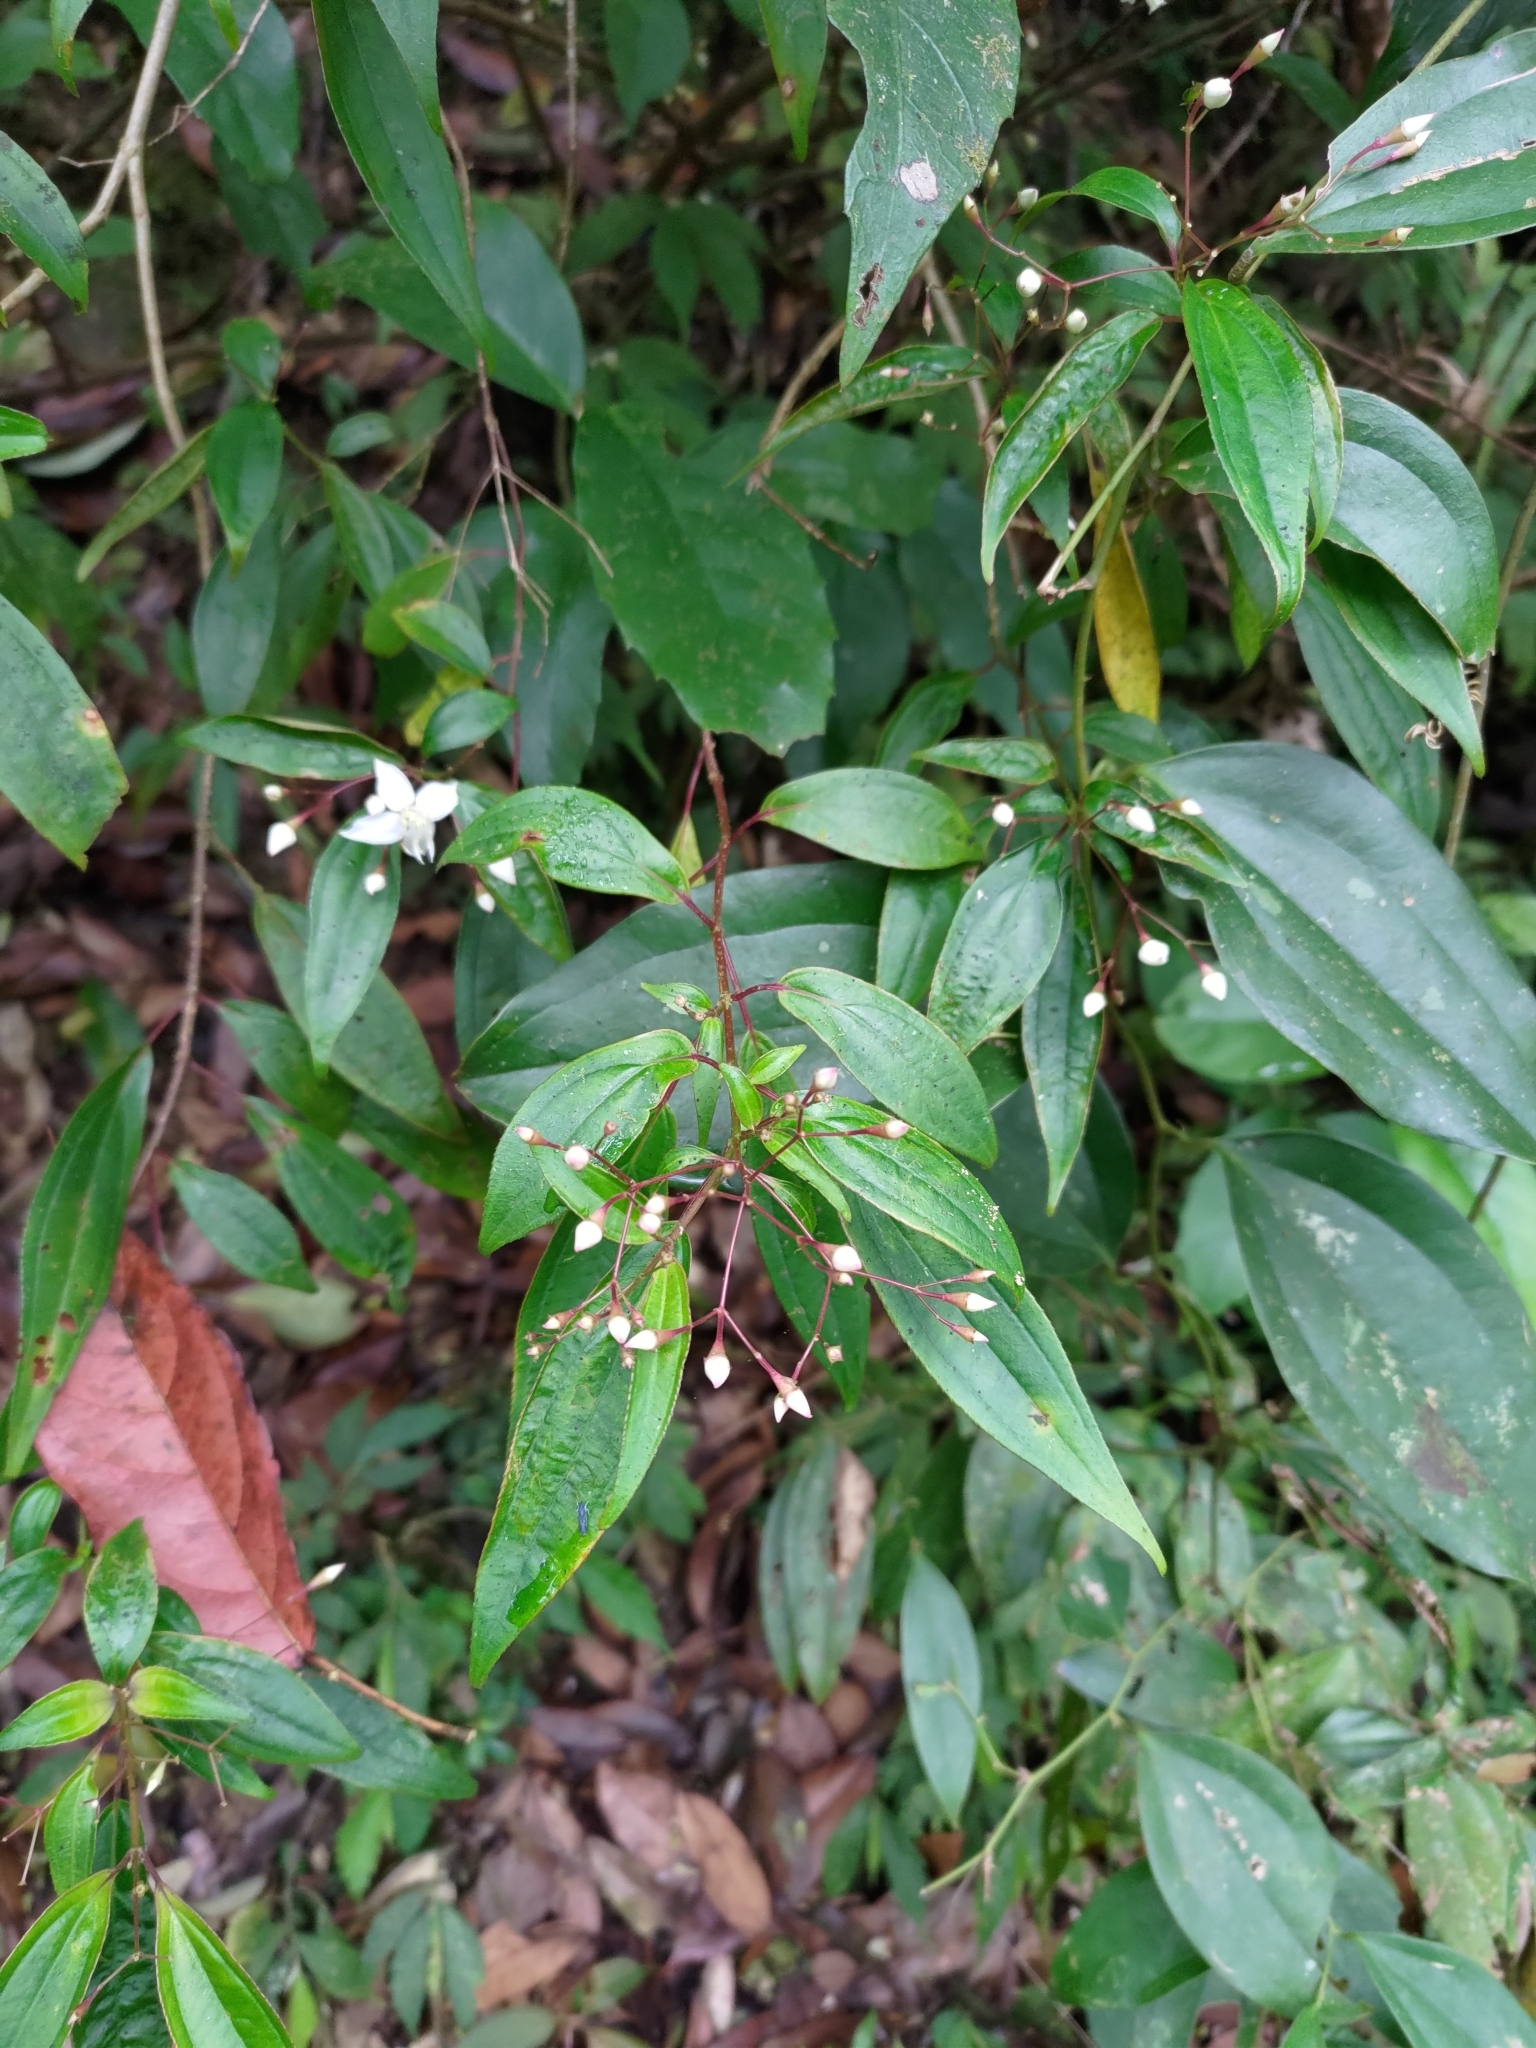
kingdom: Plantae
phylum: Tracheophyta
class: Magnoliopsida
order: Myrtales
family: Melastomataceae
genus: Bredia
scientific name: Bredia oldhamii
